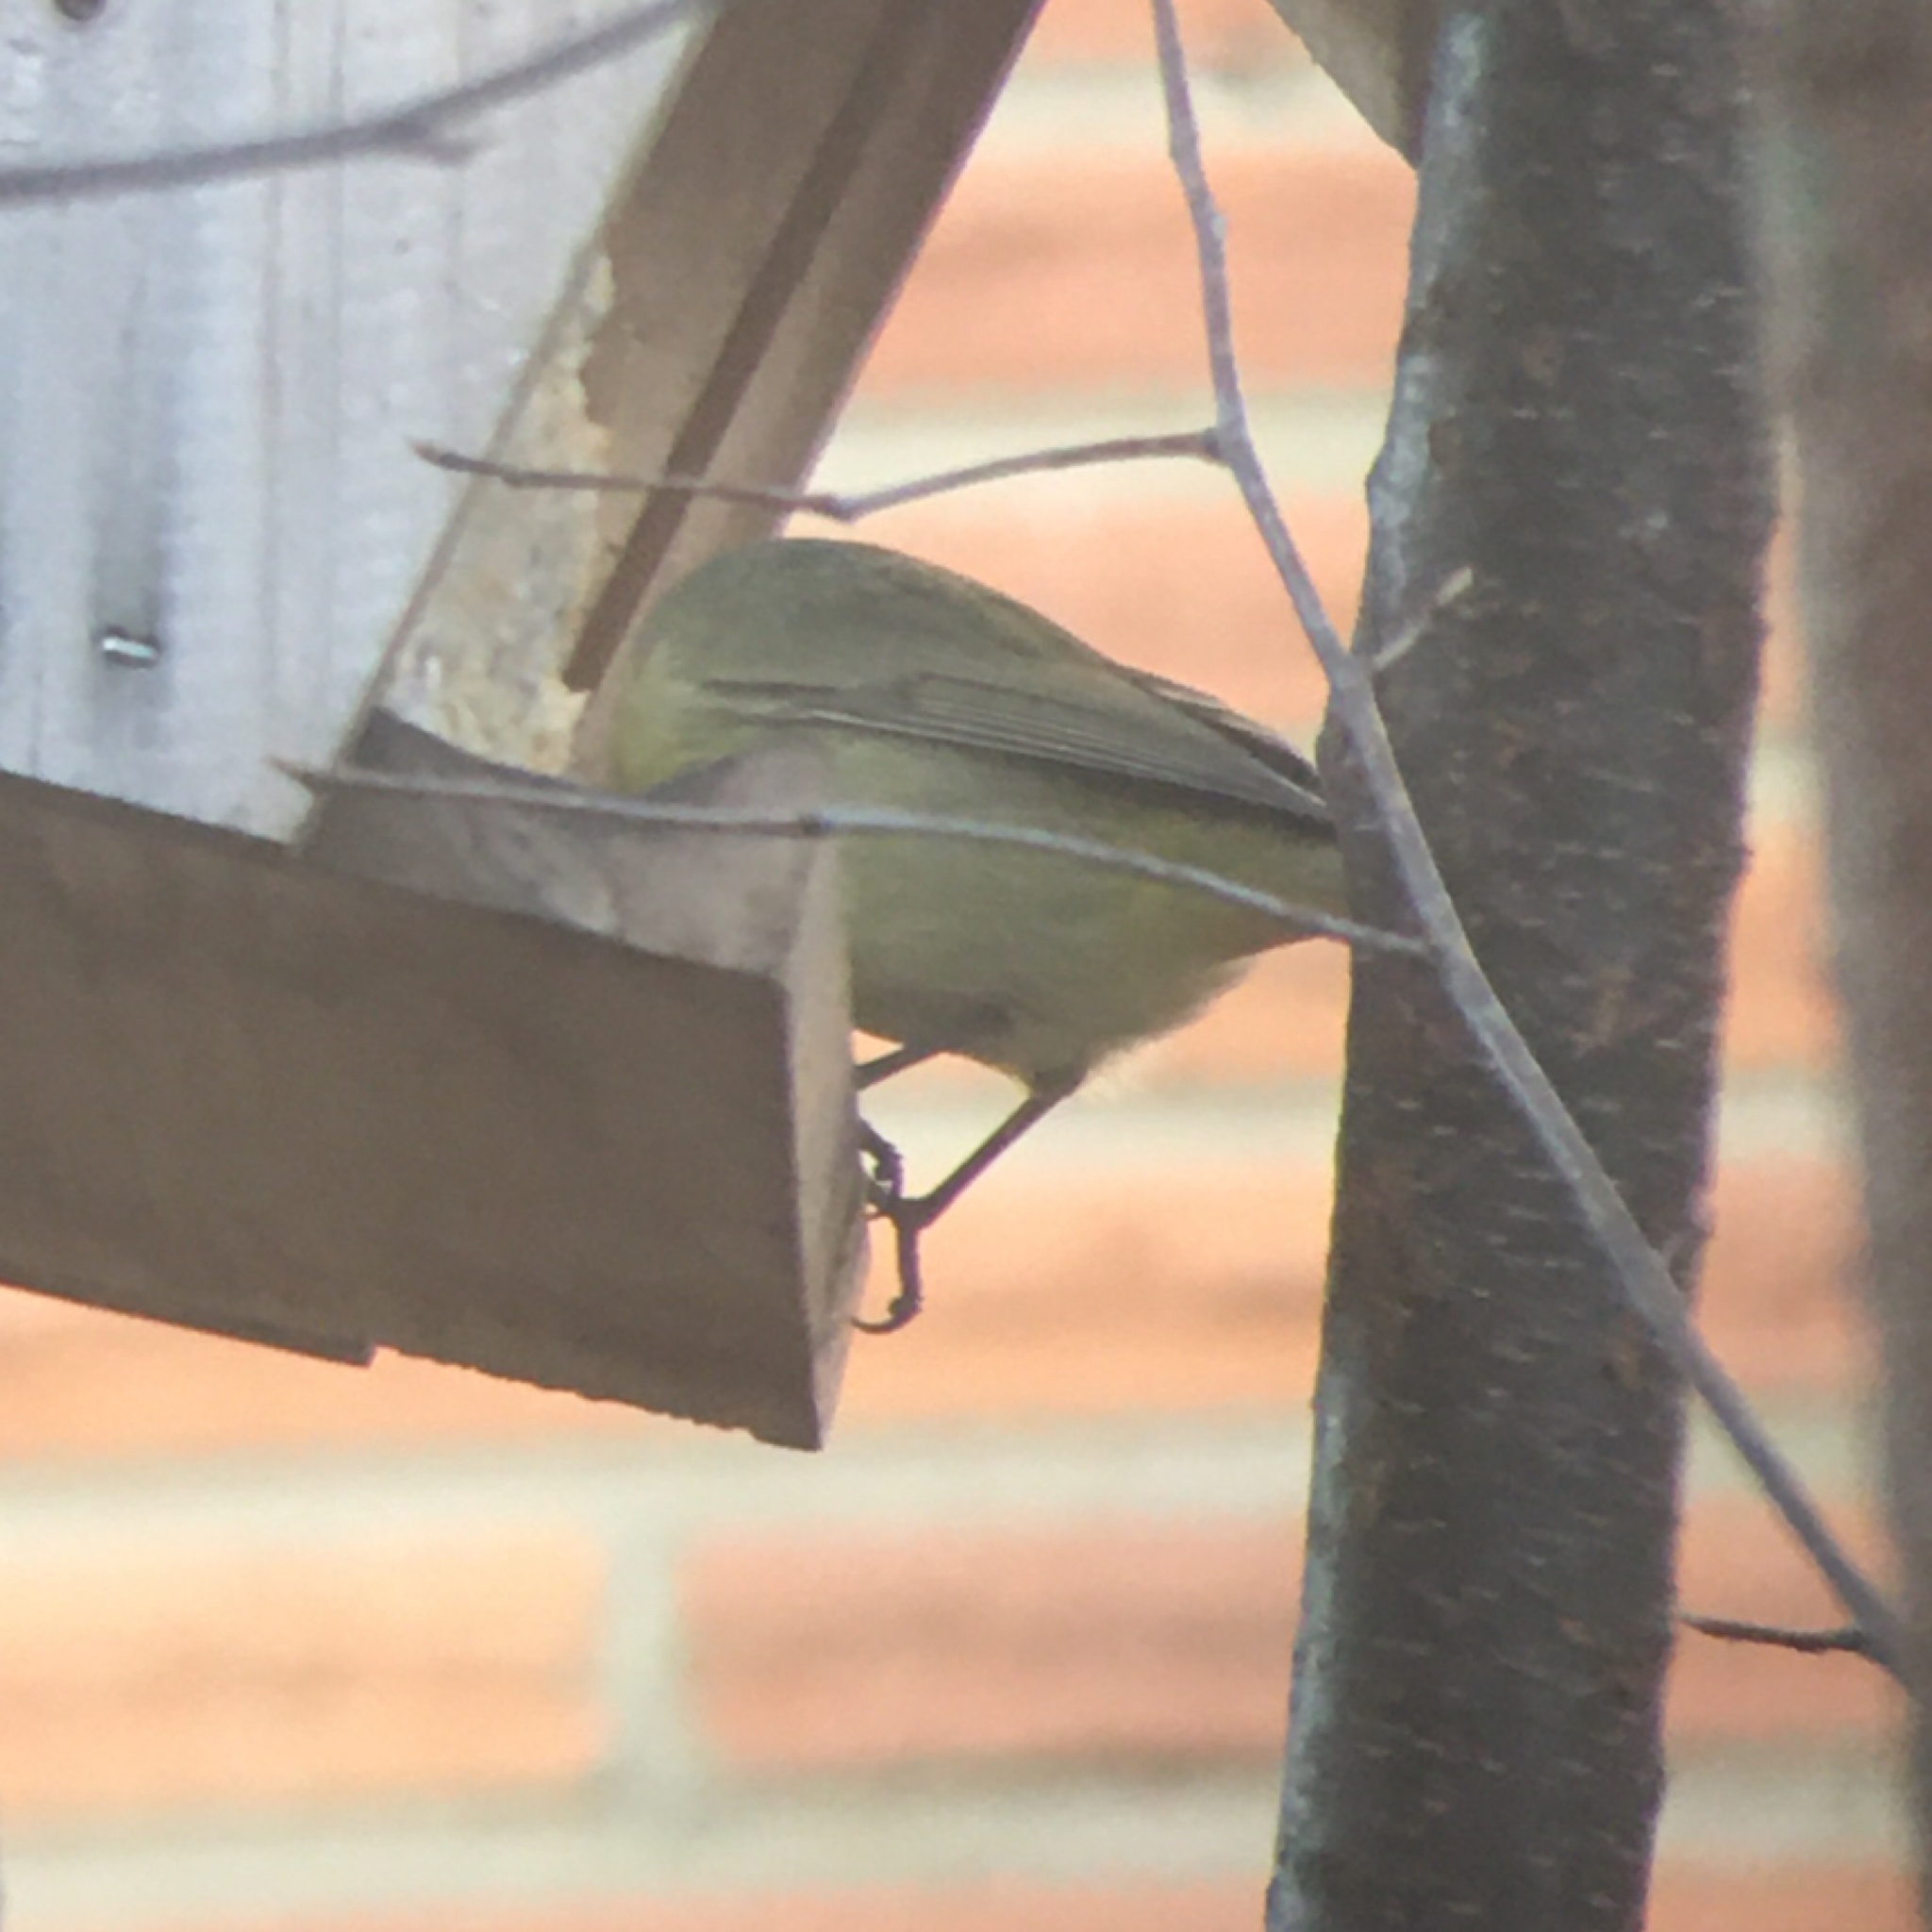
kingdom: Animalia
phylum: Chordata
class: Aves
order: Passeriformes
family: Parulidae
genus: Leiothlypis
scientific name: Leiothlypis celata
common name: Orange-crowned warbler
